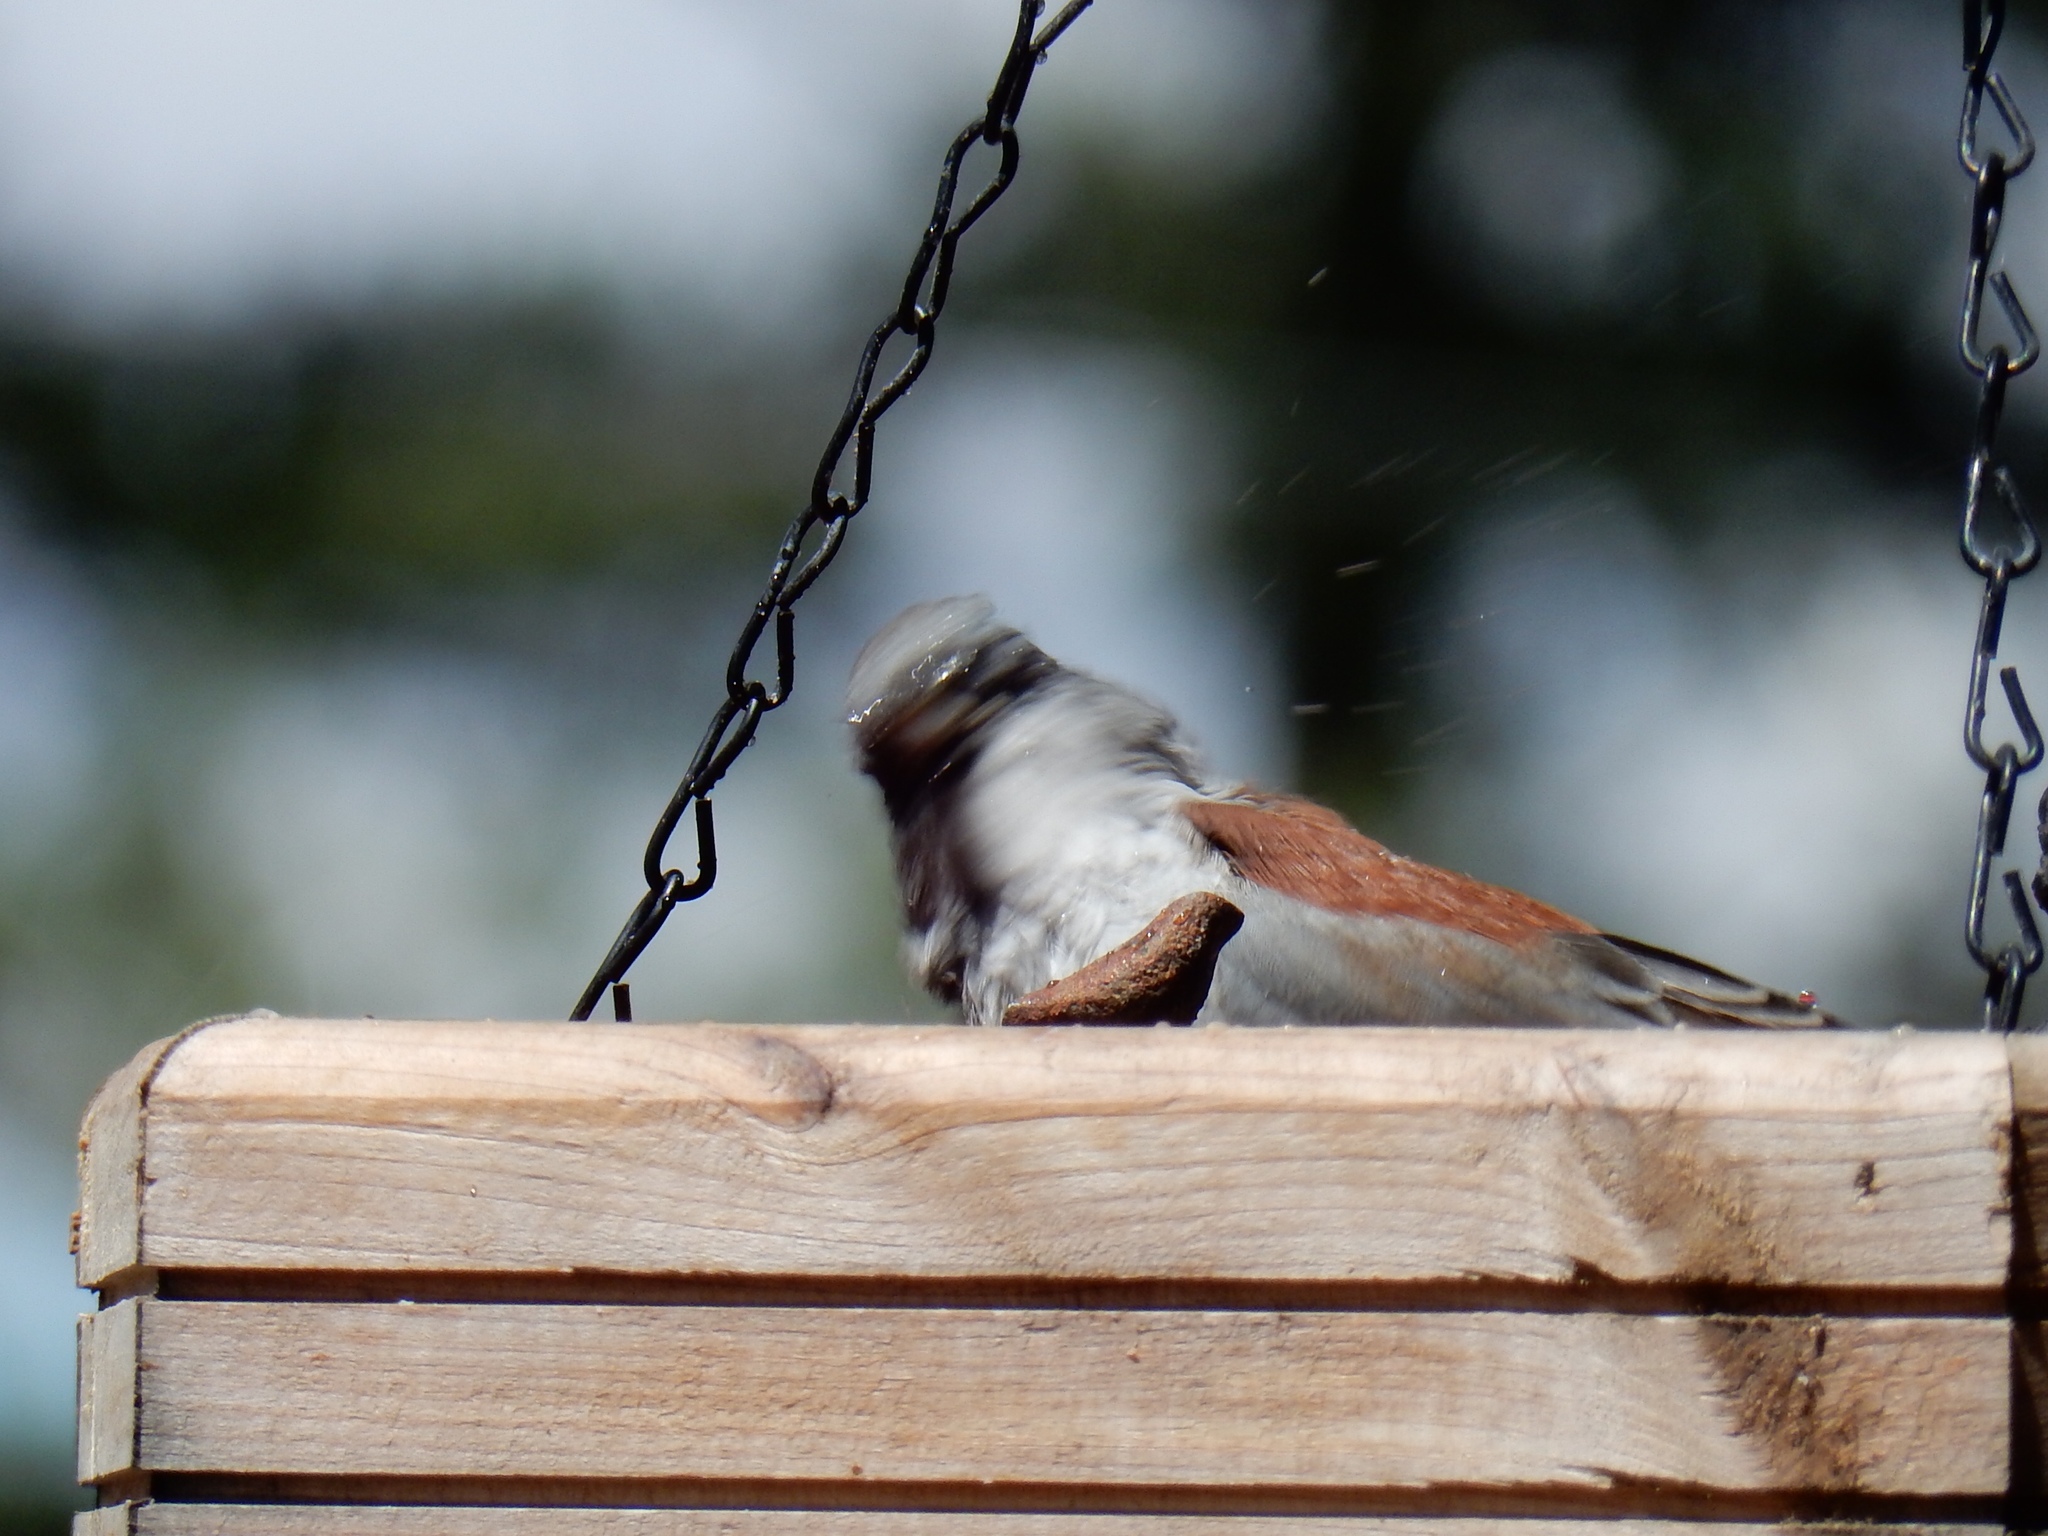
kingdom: Animalia
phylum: Chordata
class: Aves
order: Passeriformes
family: Passerellidae
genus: Junco
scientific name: Junco hyemalis
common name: Dark-eyed junco
